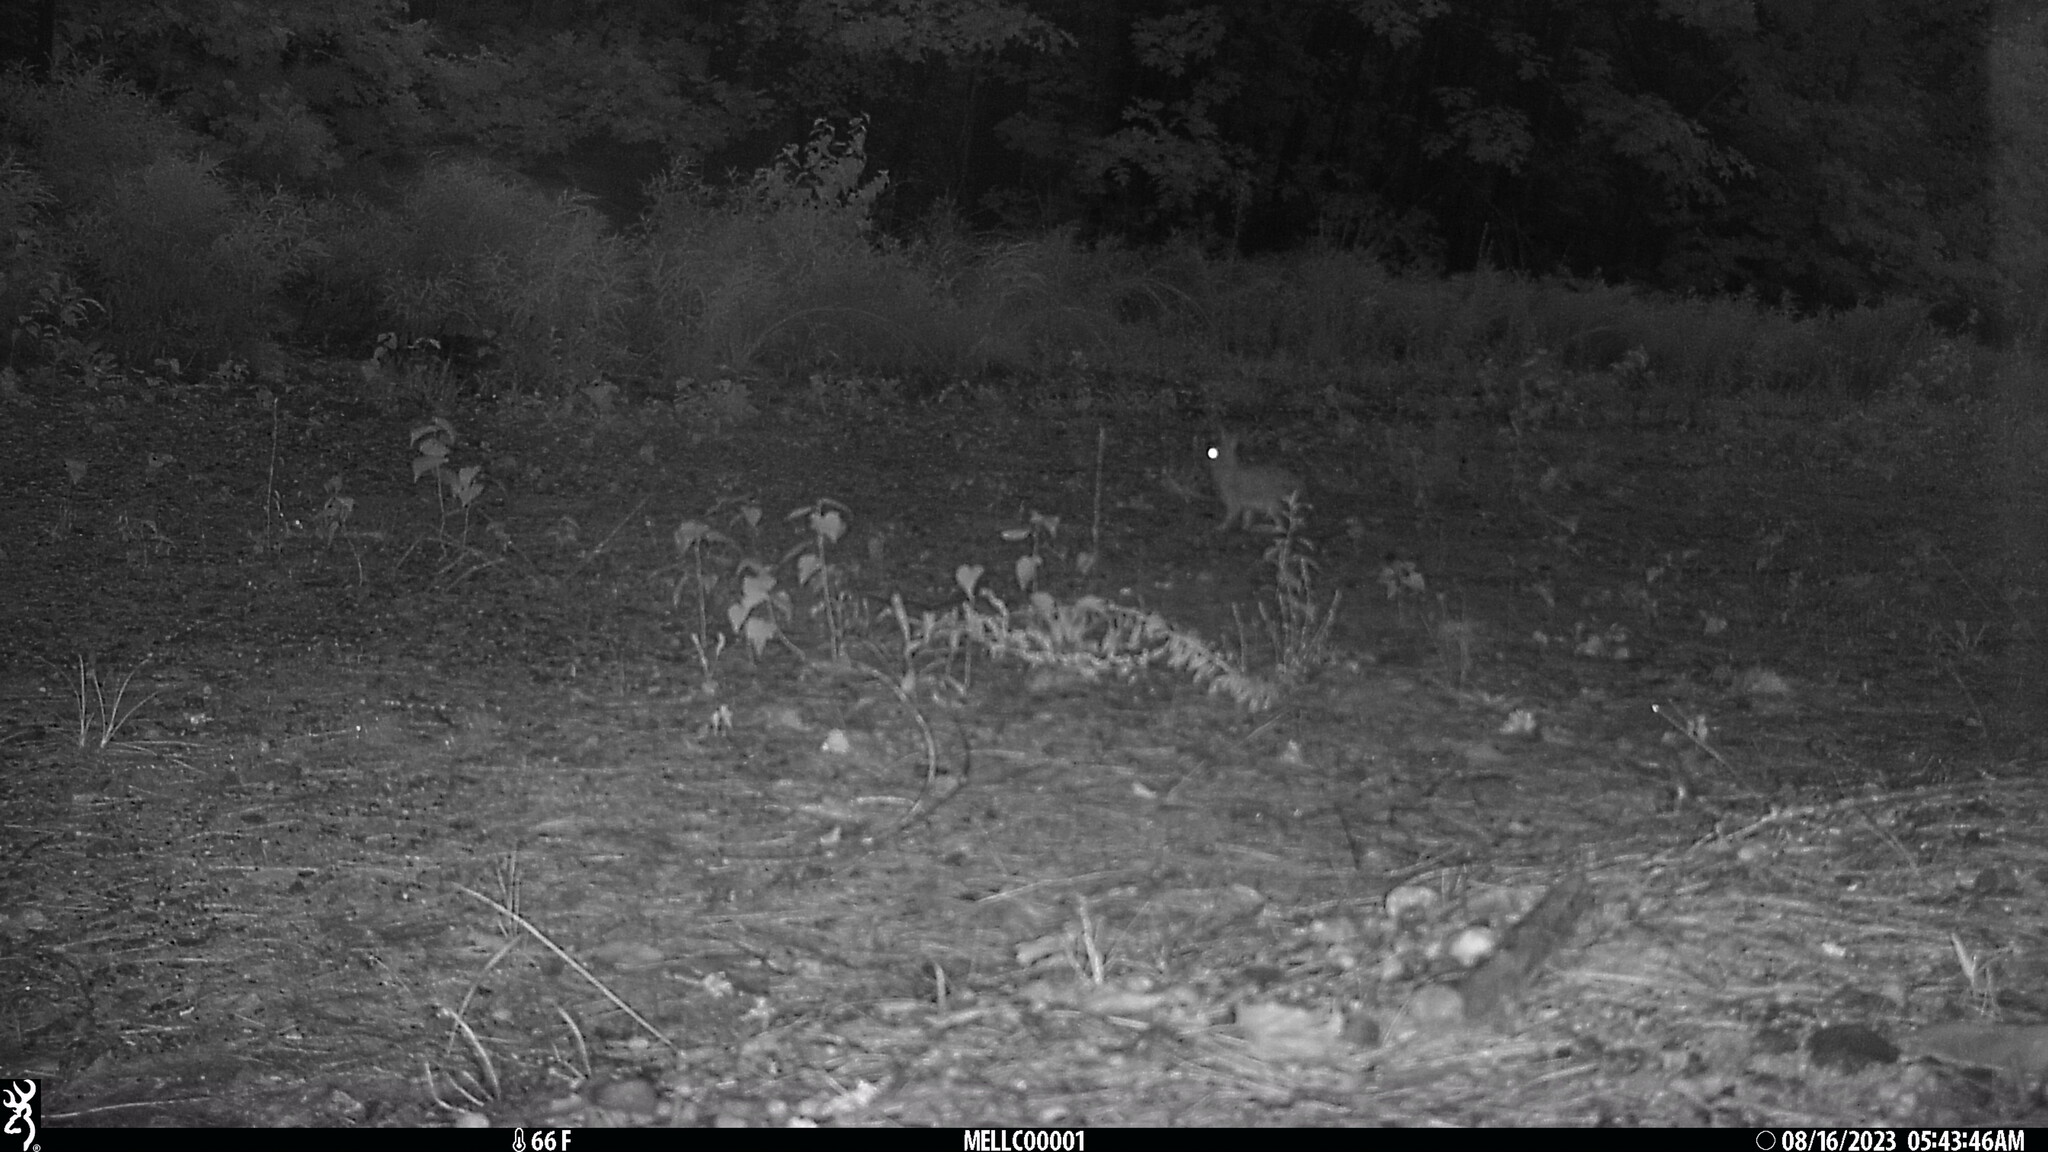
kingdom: Animalia
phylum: Chordata
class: Mammalia
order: Lagomorpha
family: Leporidae
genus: Sylvilagus
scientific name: Sylvilagus floridanus
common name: Eastern cottontail
